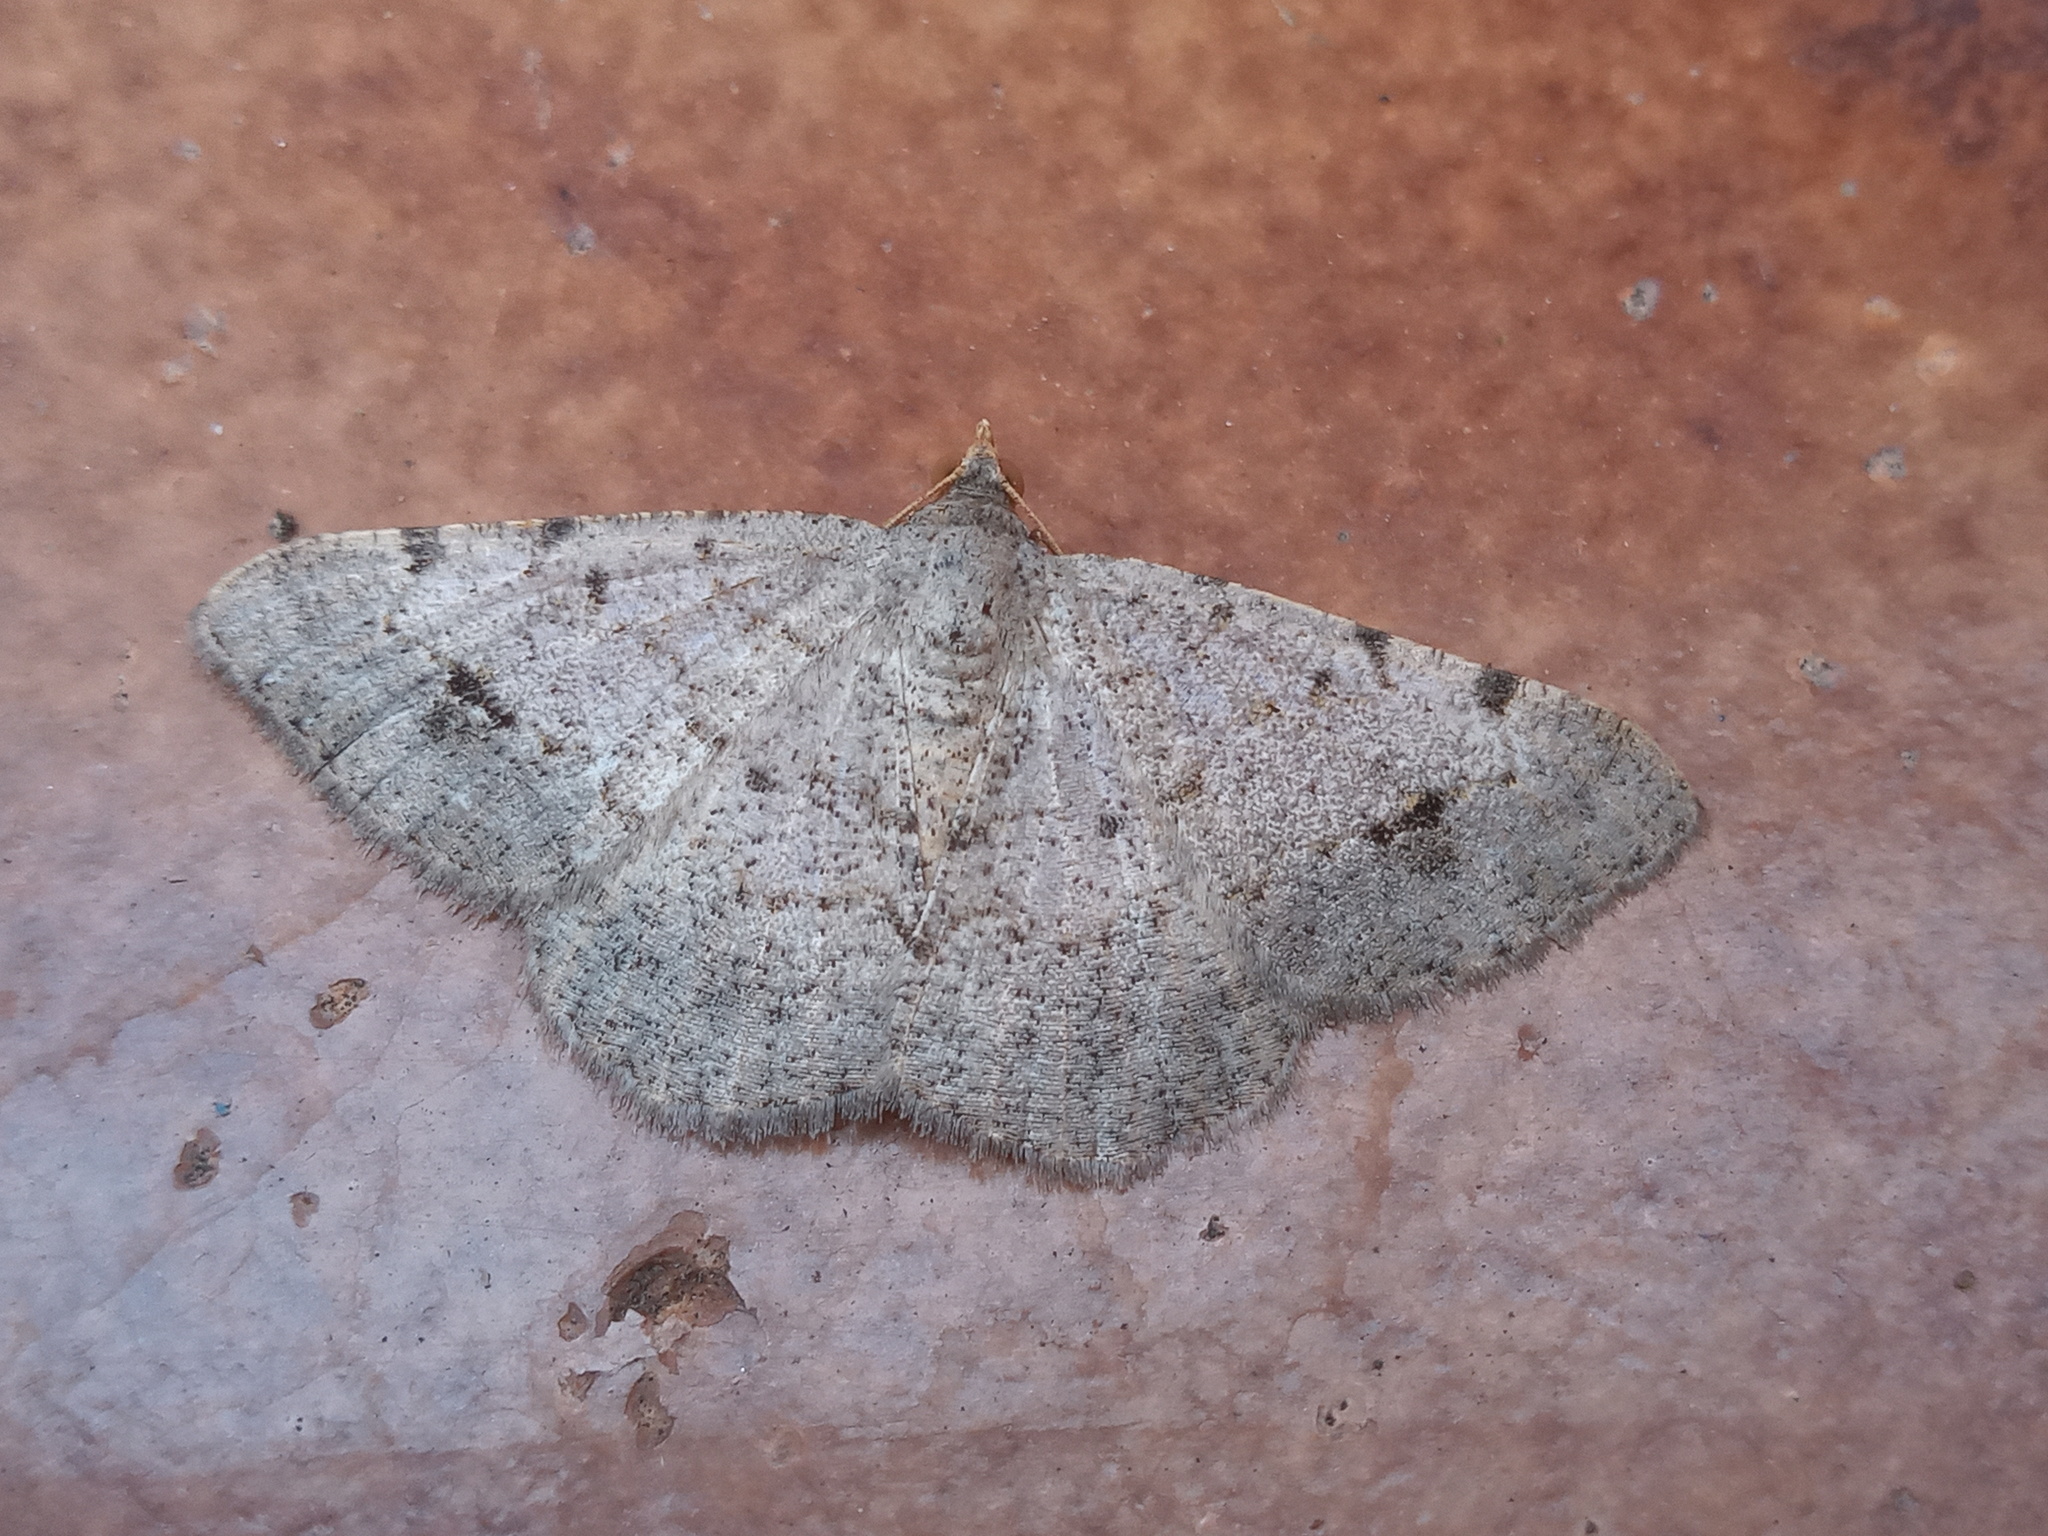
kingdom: Animalia
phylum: Arthropoda
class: Insecta
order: Lepidoptera
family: Geometridae
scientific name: Geometridae
